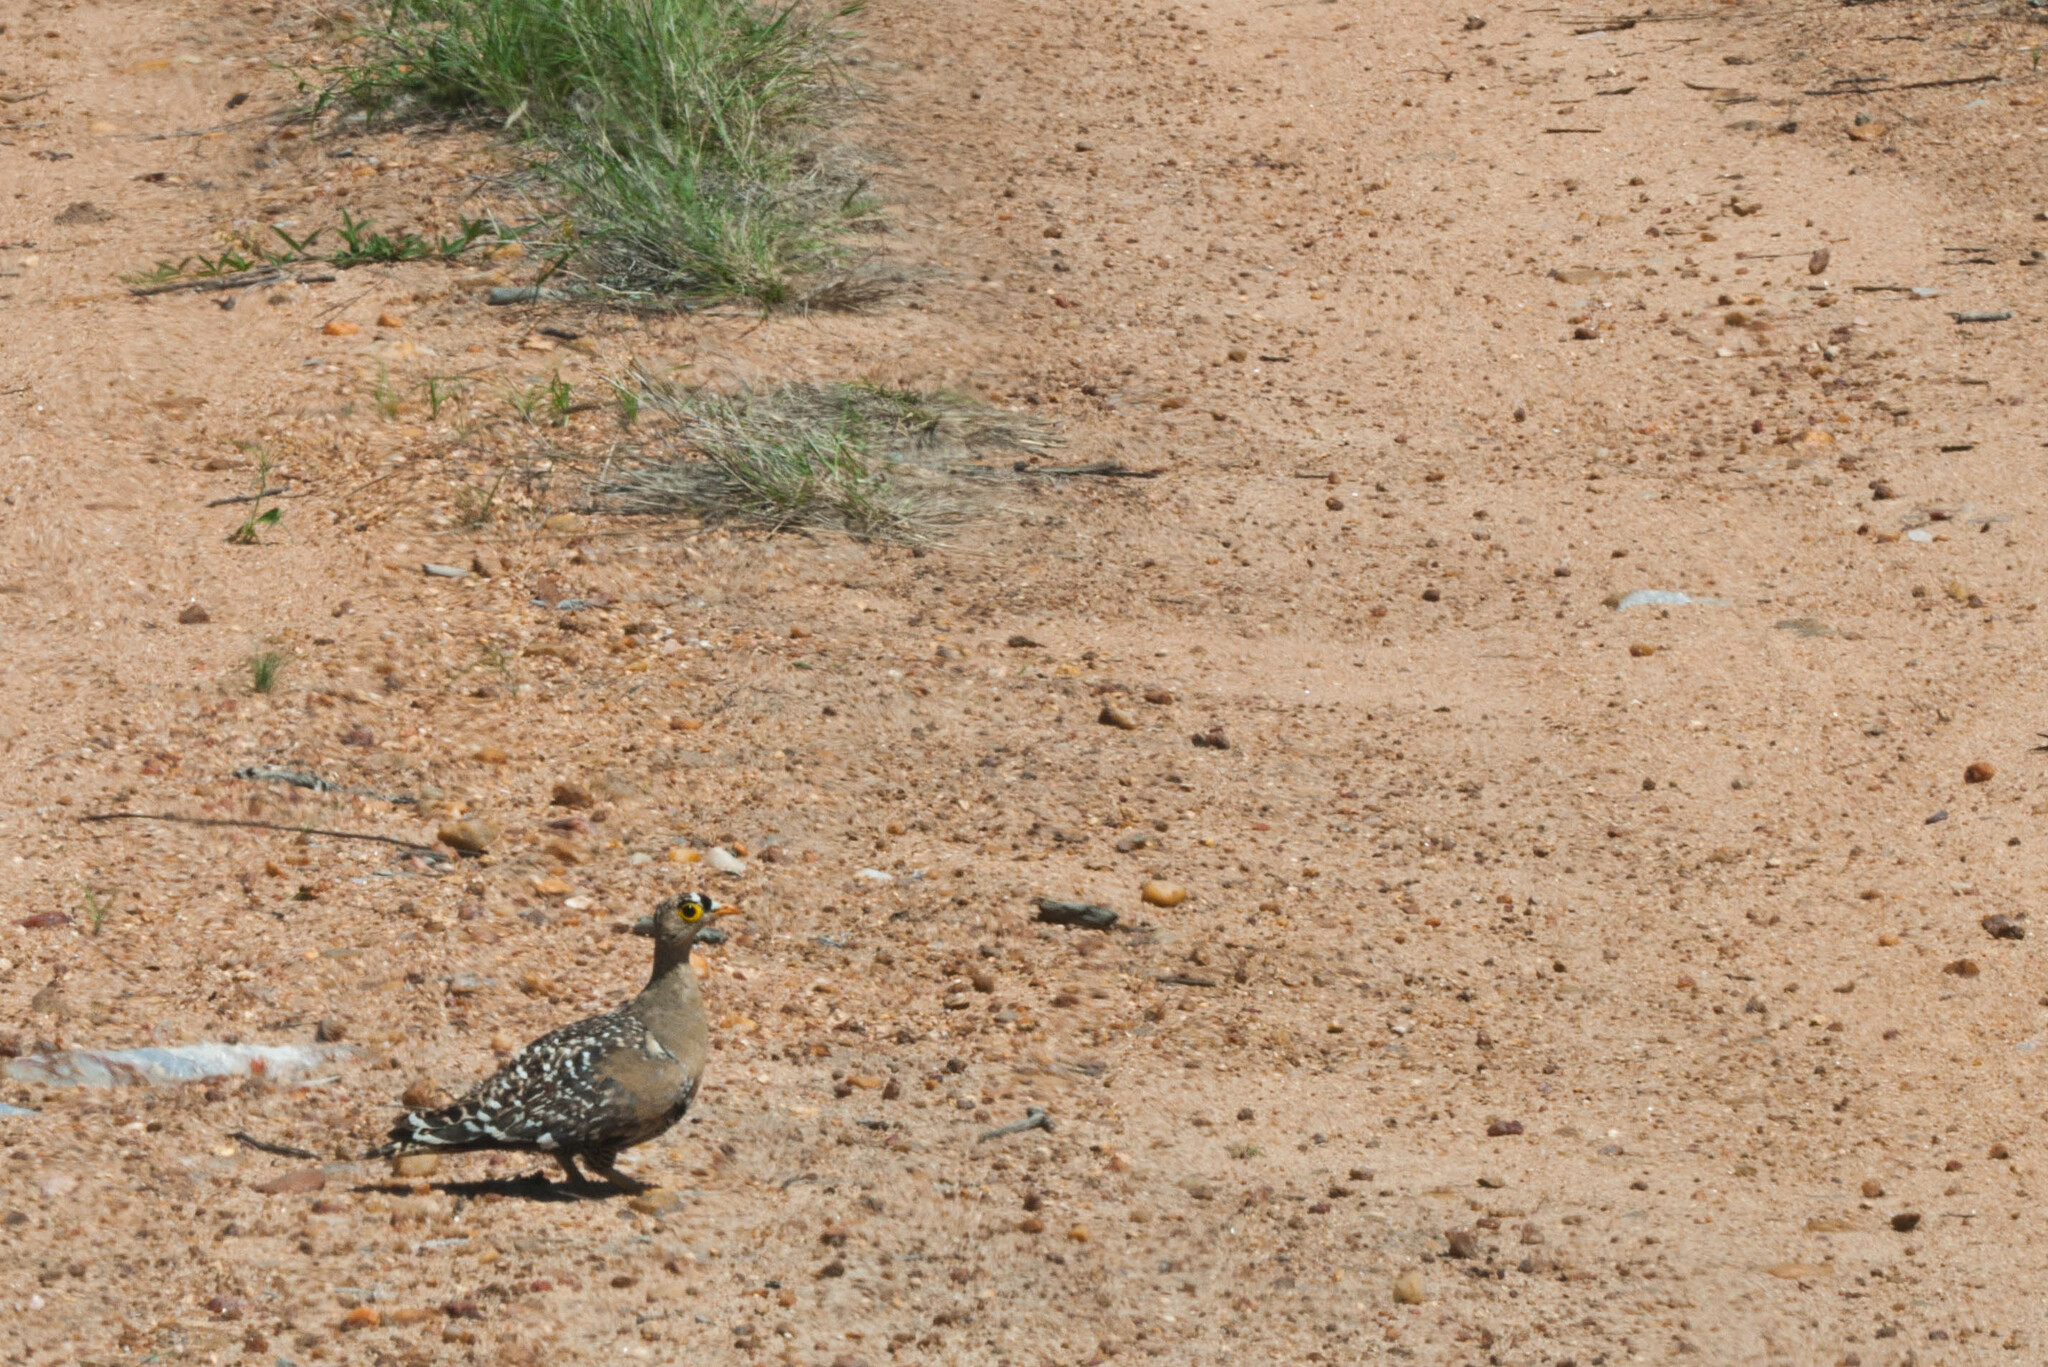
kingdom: Animalia
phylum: Chordata
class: Aves
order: Pteroclidiformes
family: Pteroclididae
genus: Pterocles
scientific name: Pterocles bicinctus
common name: Double-banded sandgrouse
